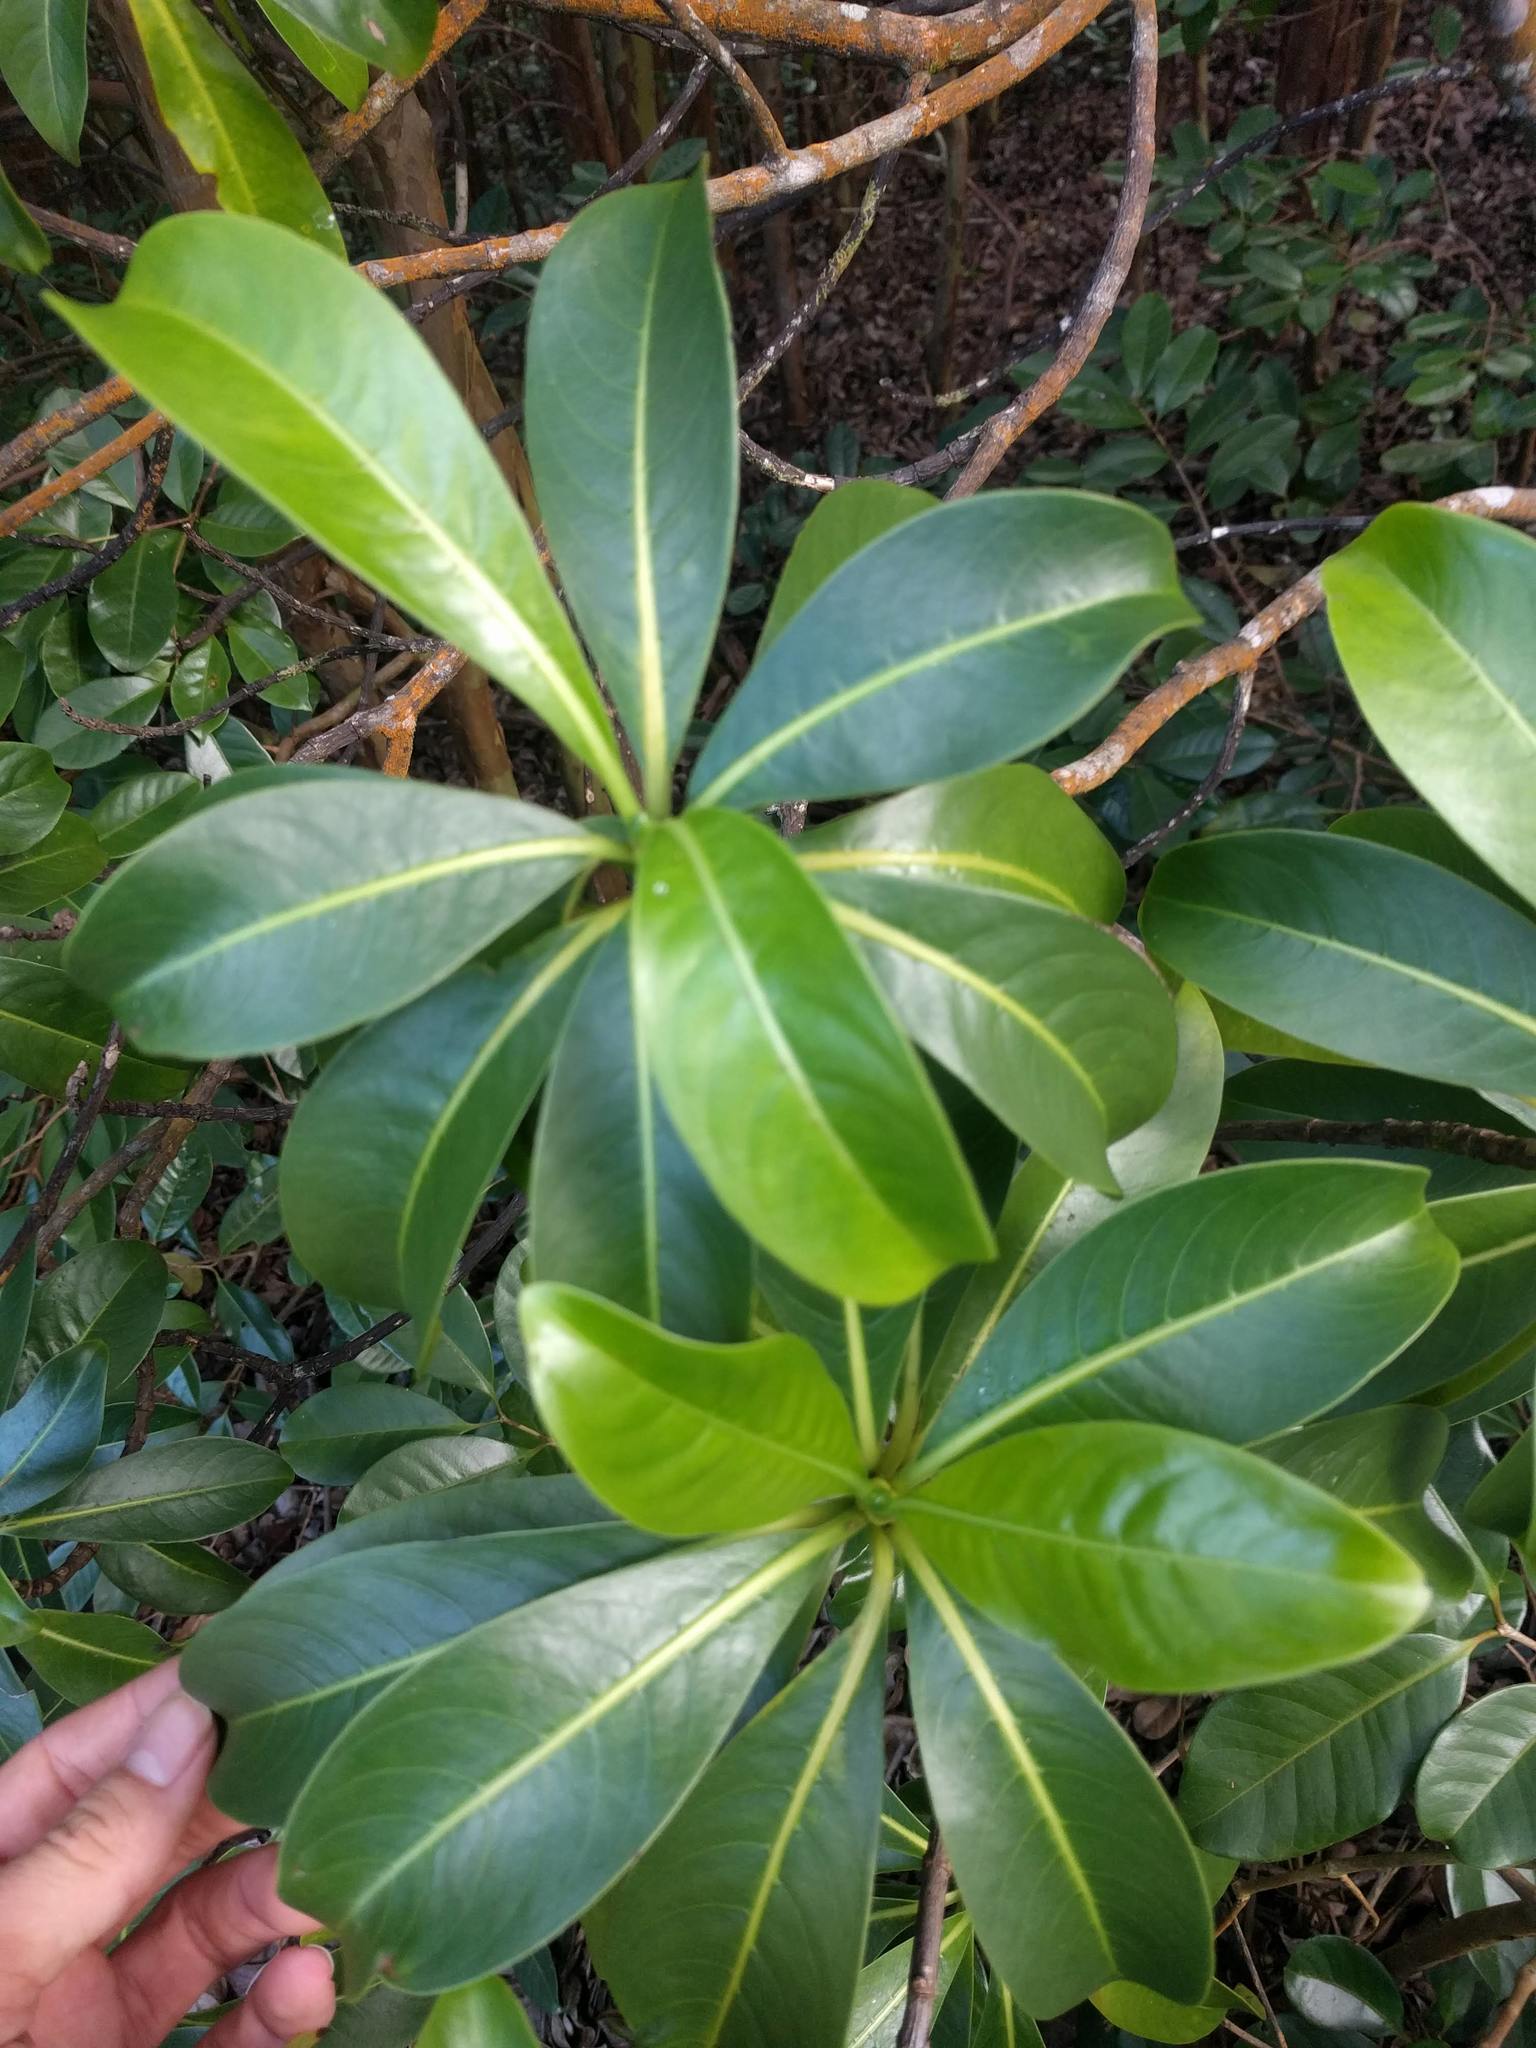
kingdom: Plantae
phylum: Tracheophyta
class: Magnoliopsida
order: Gentianales
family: Rubiaceae
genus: Psychotria
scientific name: Psychotria mariniana
